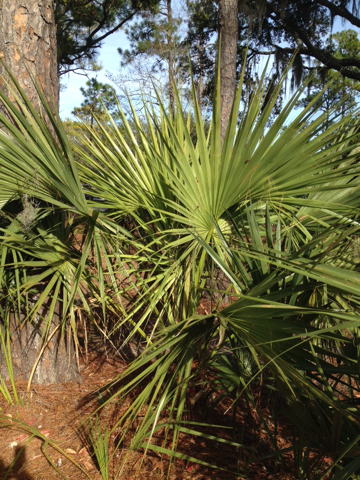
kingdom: Plantae
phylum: Tracheophyta
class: Liliopsida
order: Arecales
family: Arecaceae
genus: Serenoa
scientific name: Serenoa repens
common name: Saw-palmetto
